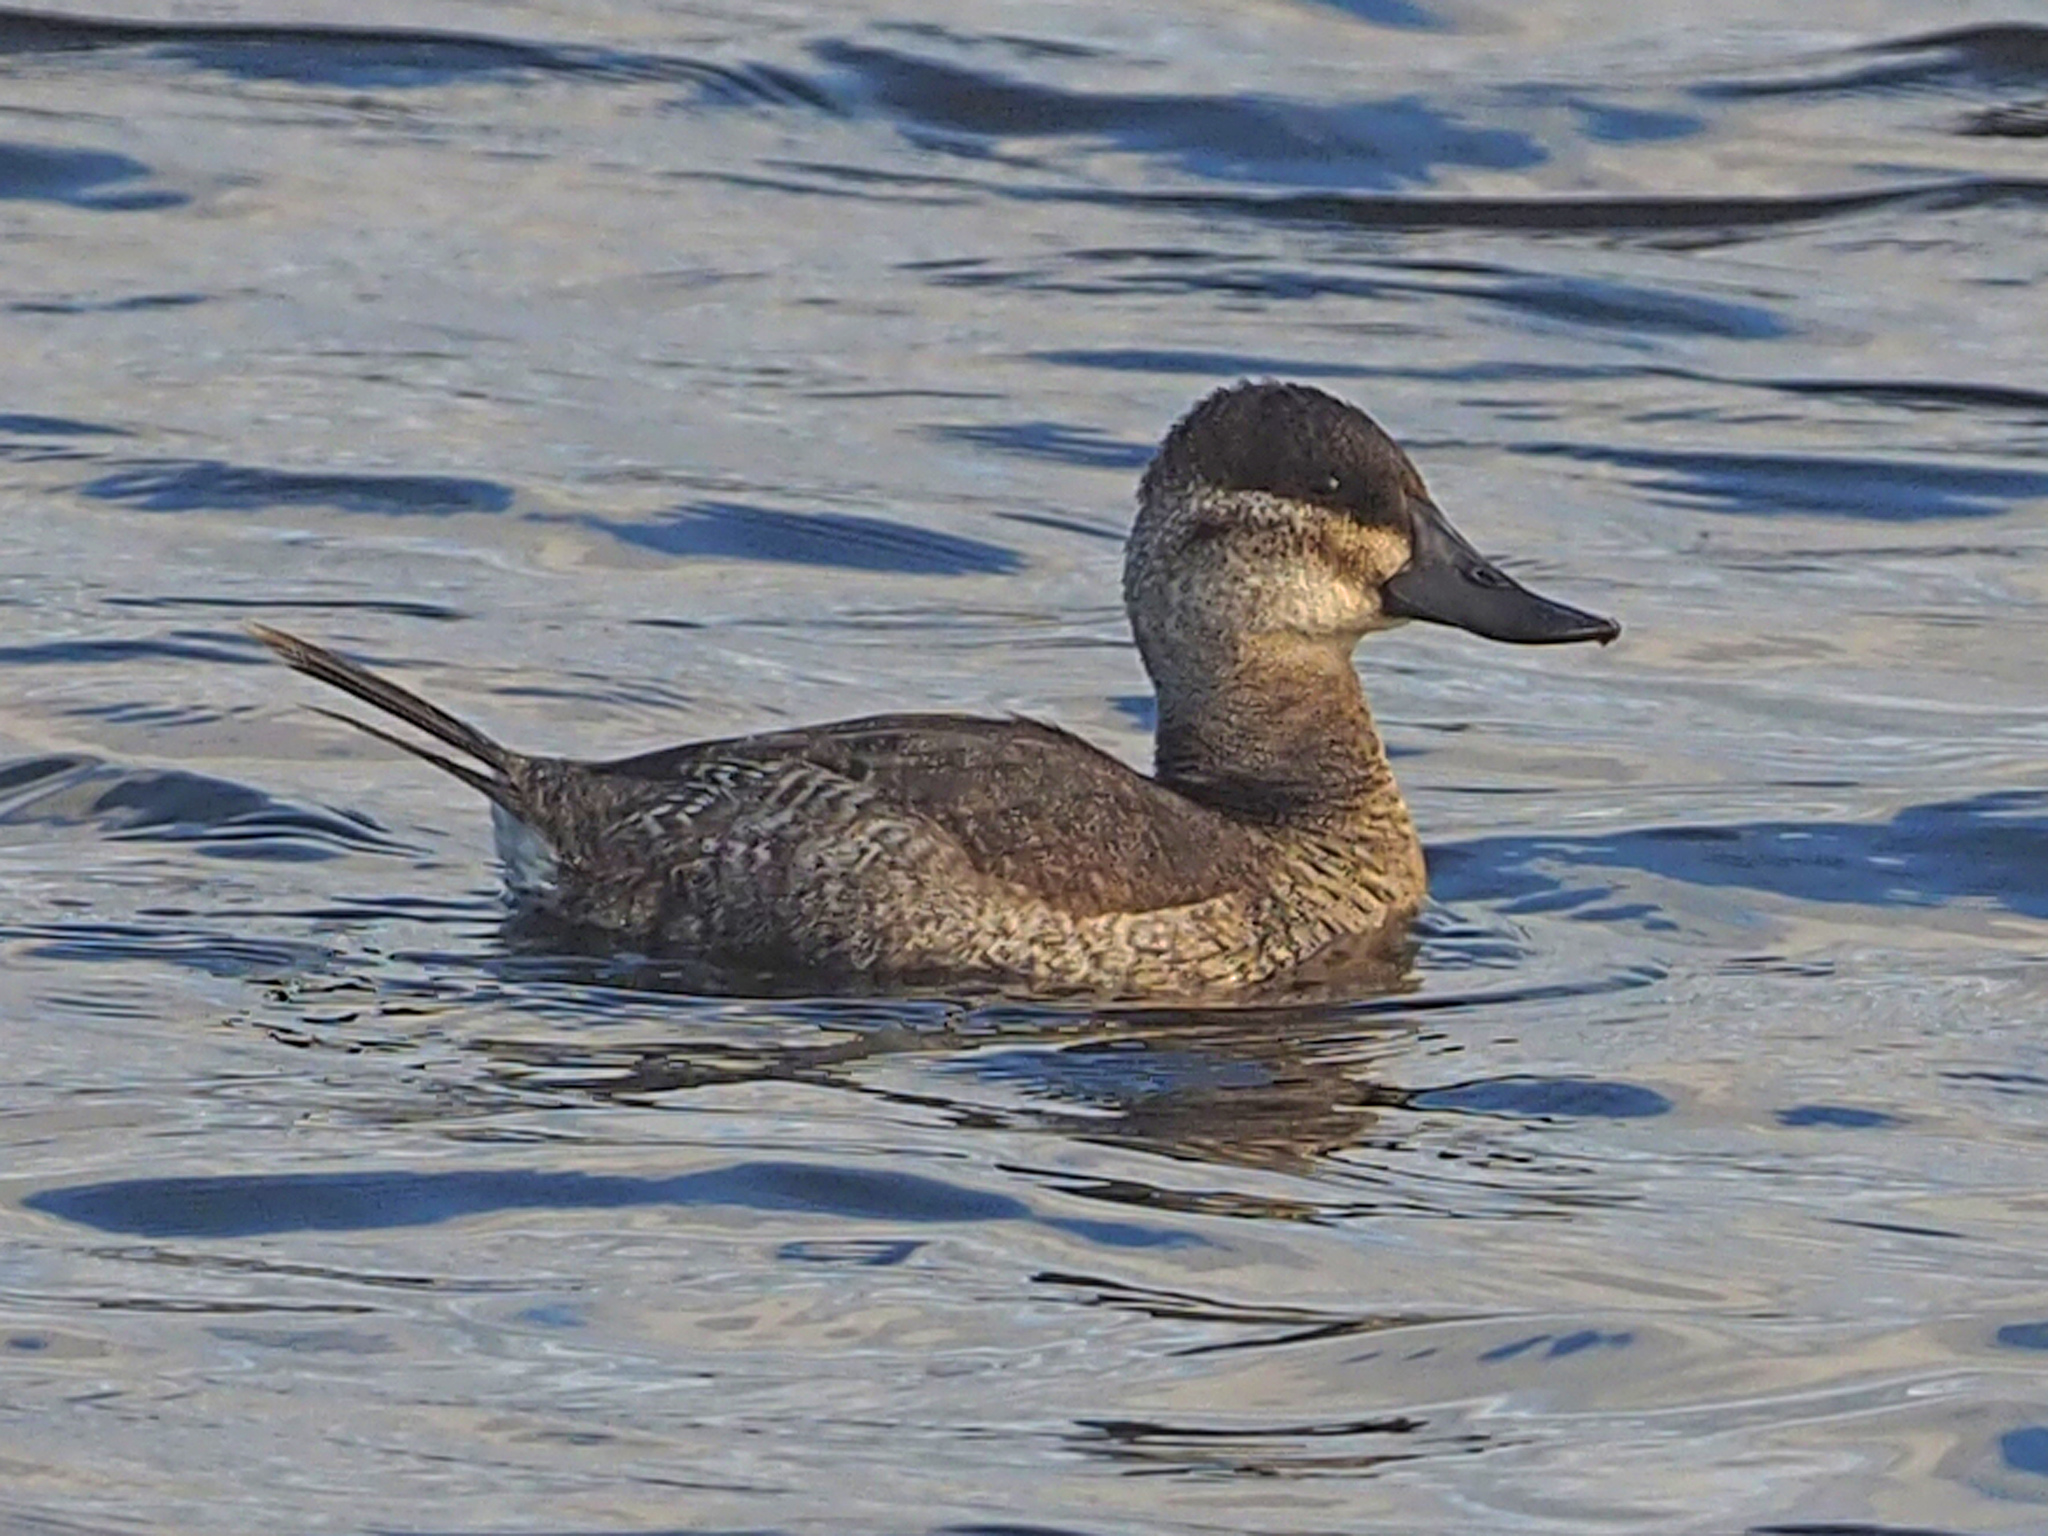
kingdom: Animalia
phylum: Chordata
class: Aves
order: Anseriformes
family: Anatidae
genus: Oxyura
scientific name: Oxyura jamaicensis
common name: Ruddy duck
